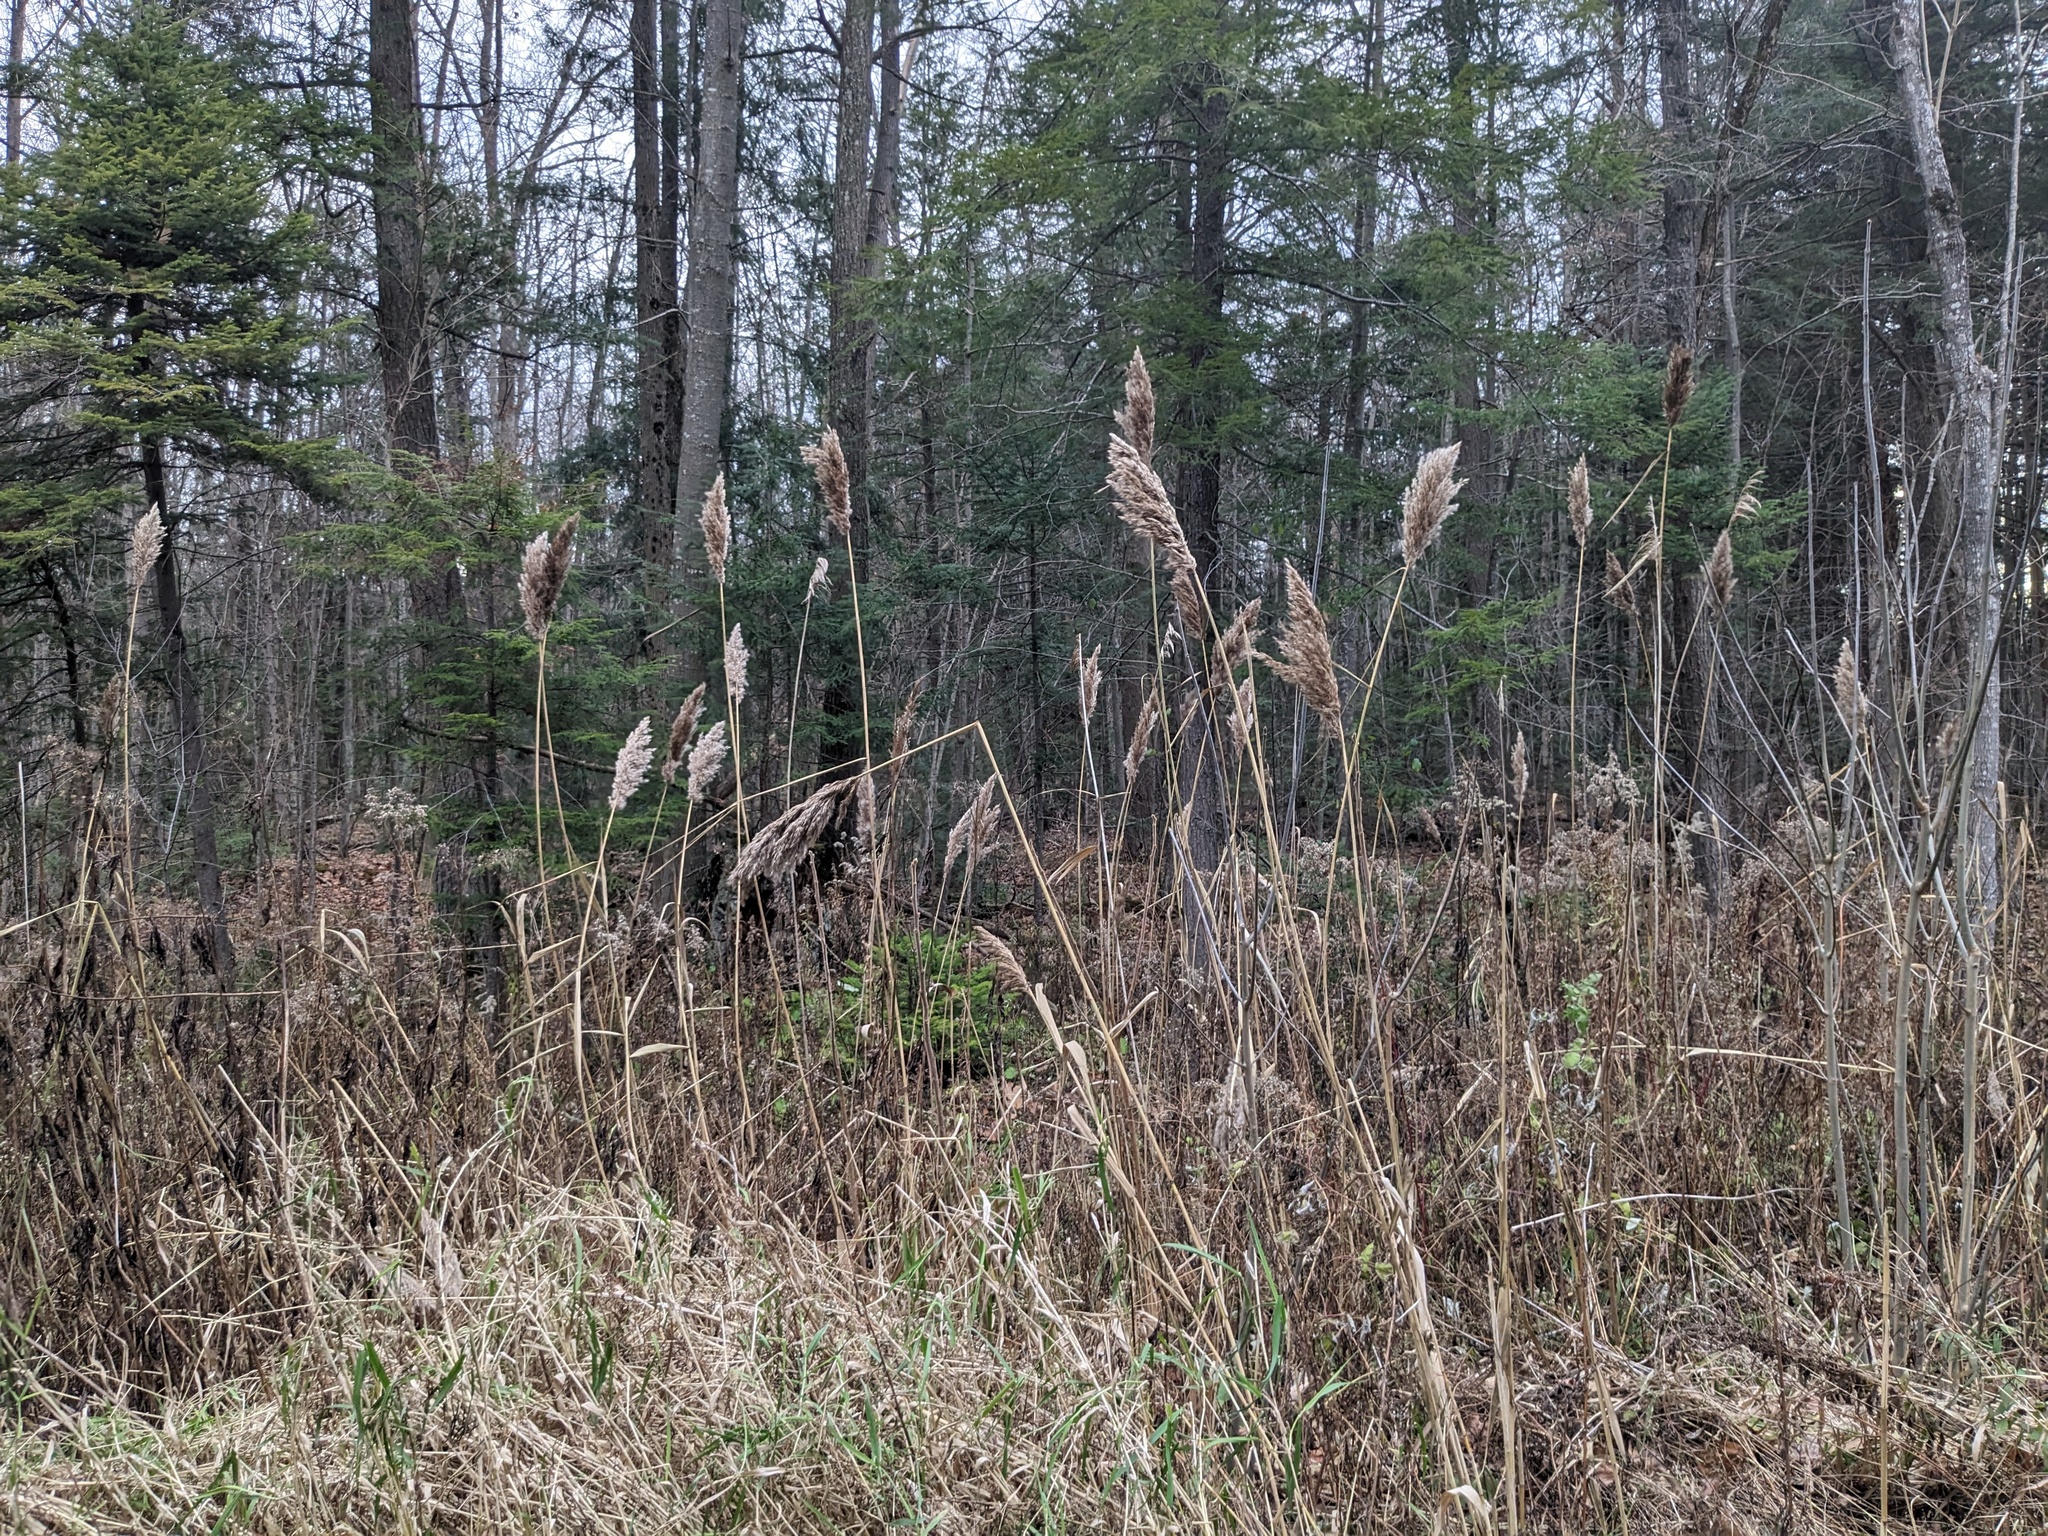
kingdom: Plantae
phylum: Tracheophyta
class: Liliopsida
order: Poales
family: Poaceae
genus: Phragmites
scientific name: Phragmites australis
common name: Common reed
